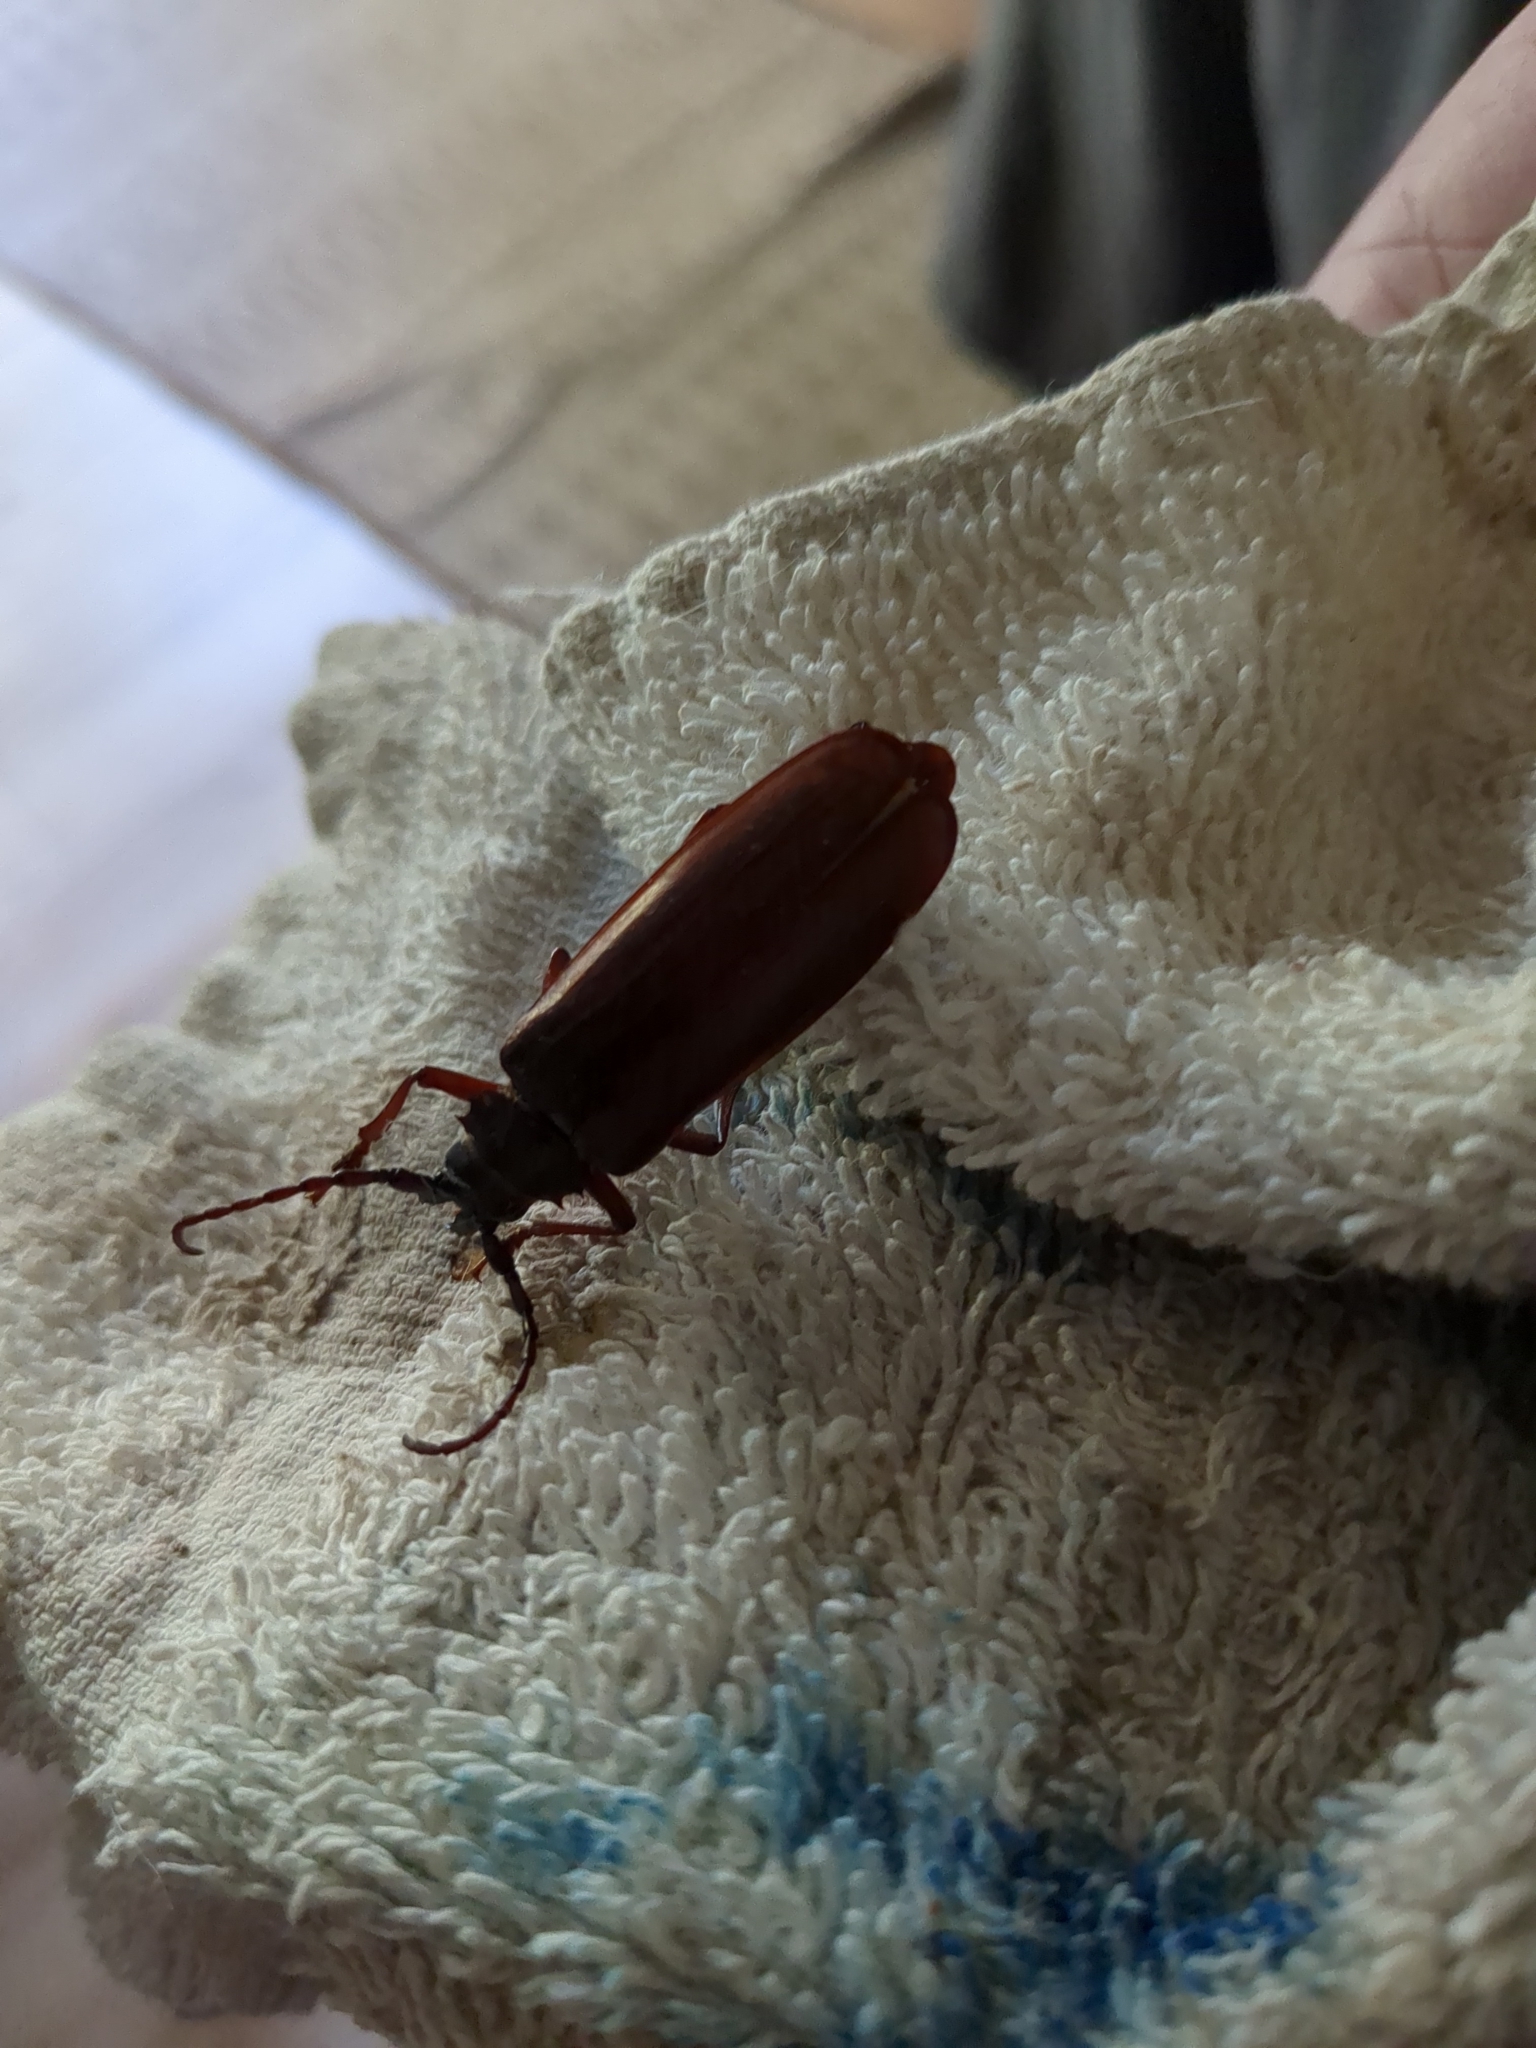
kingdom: Animalia
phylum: Arthropoda
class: Insecta
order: Coleoptera
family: Cerambycidae
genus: Orthosoma
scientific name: Orthosoma brunneum
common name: Brown prionid beetle
